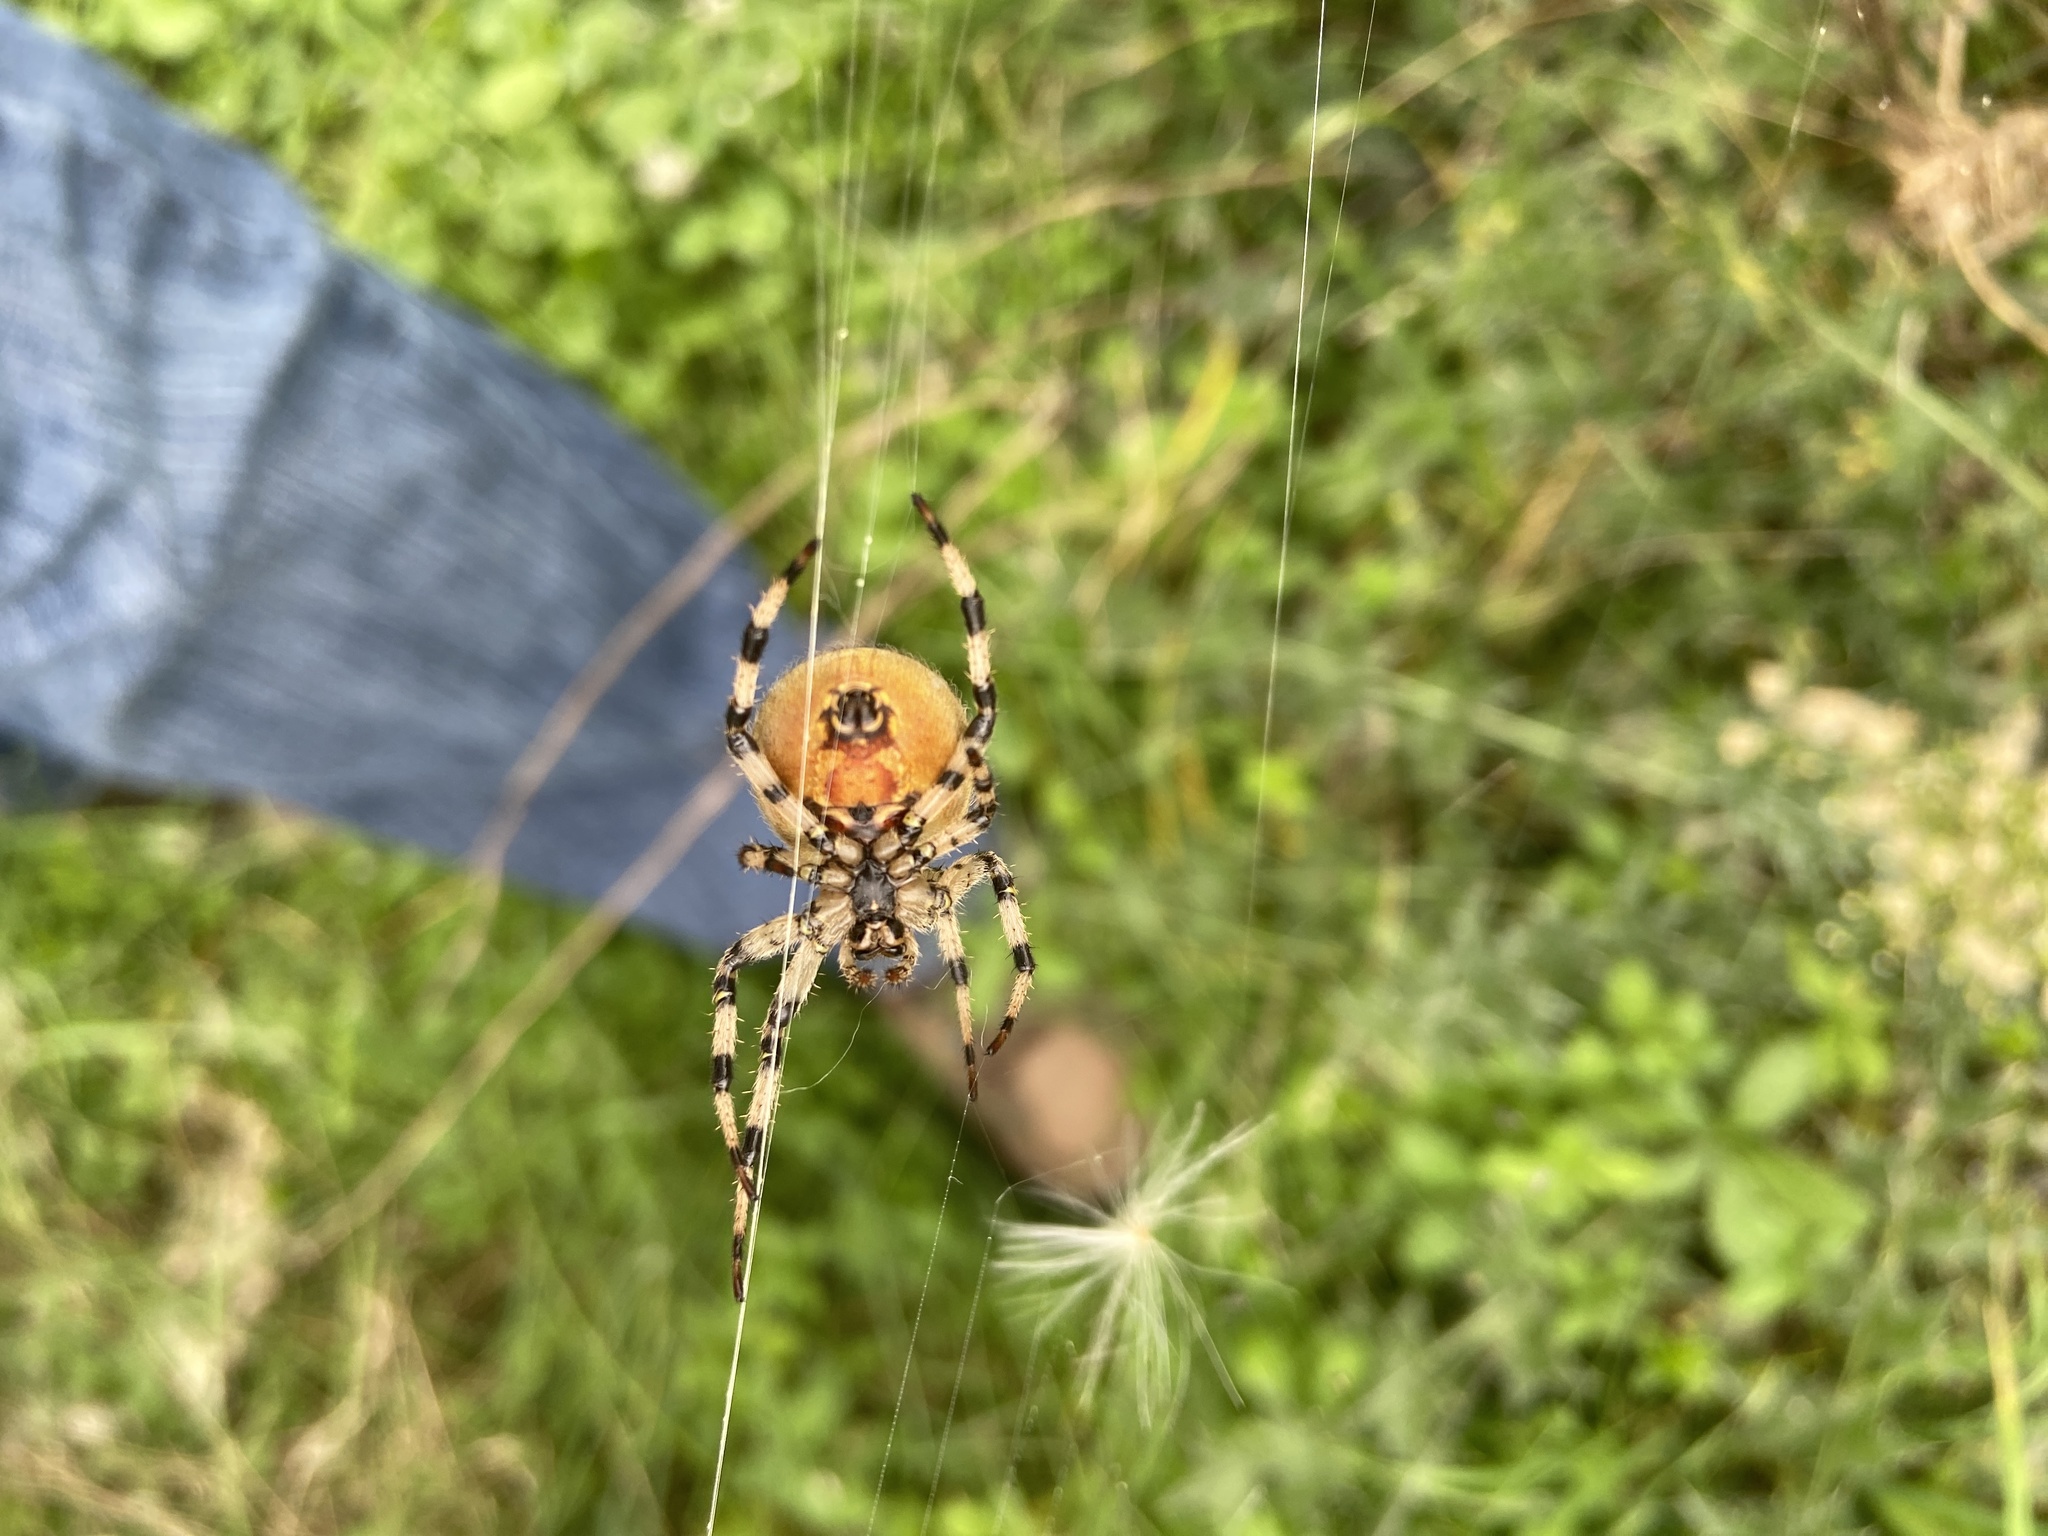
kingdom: Animalia
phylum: Arthropoda
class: Arachnida
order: Araneae
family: Araneidae
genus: Araneus
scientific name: Araneus quadratus
